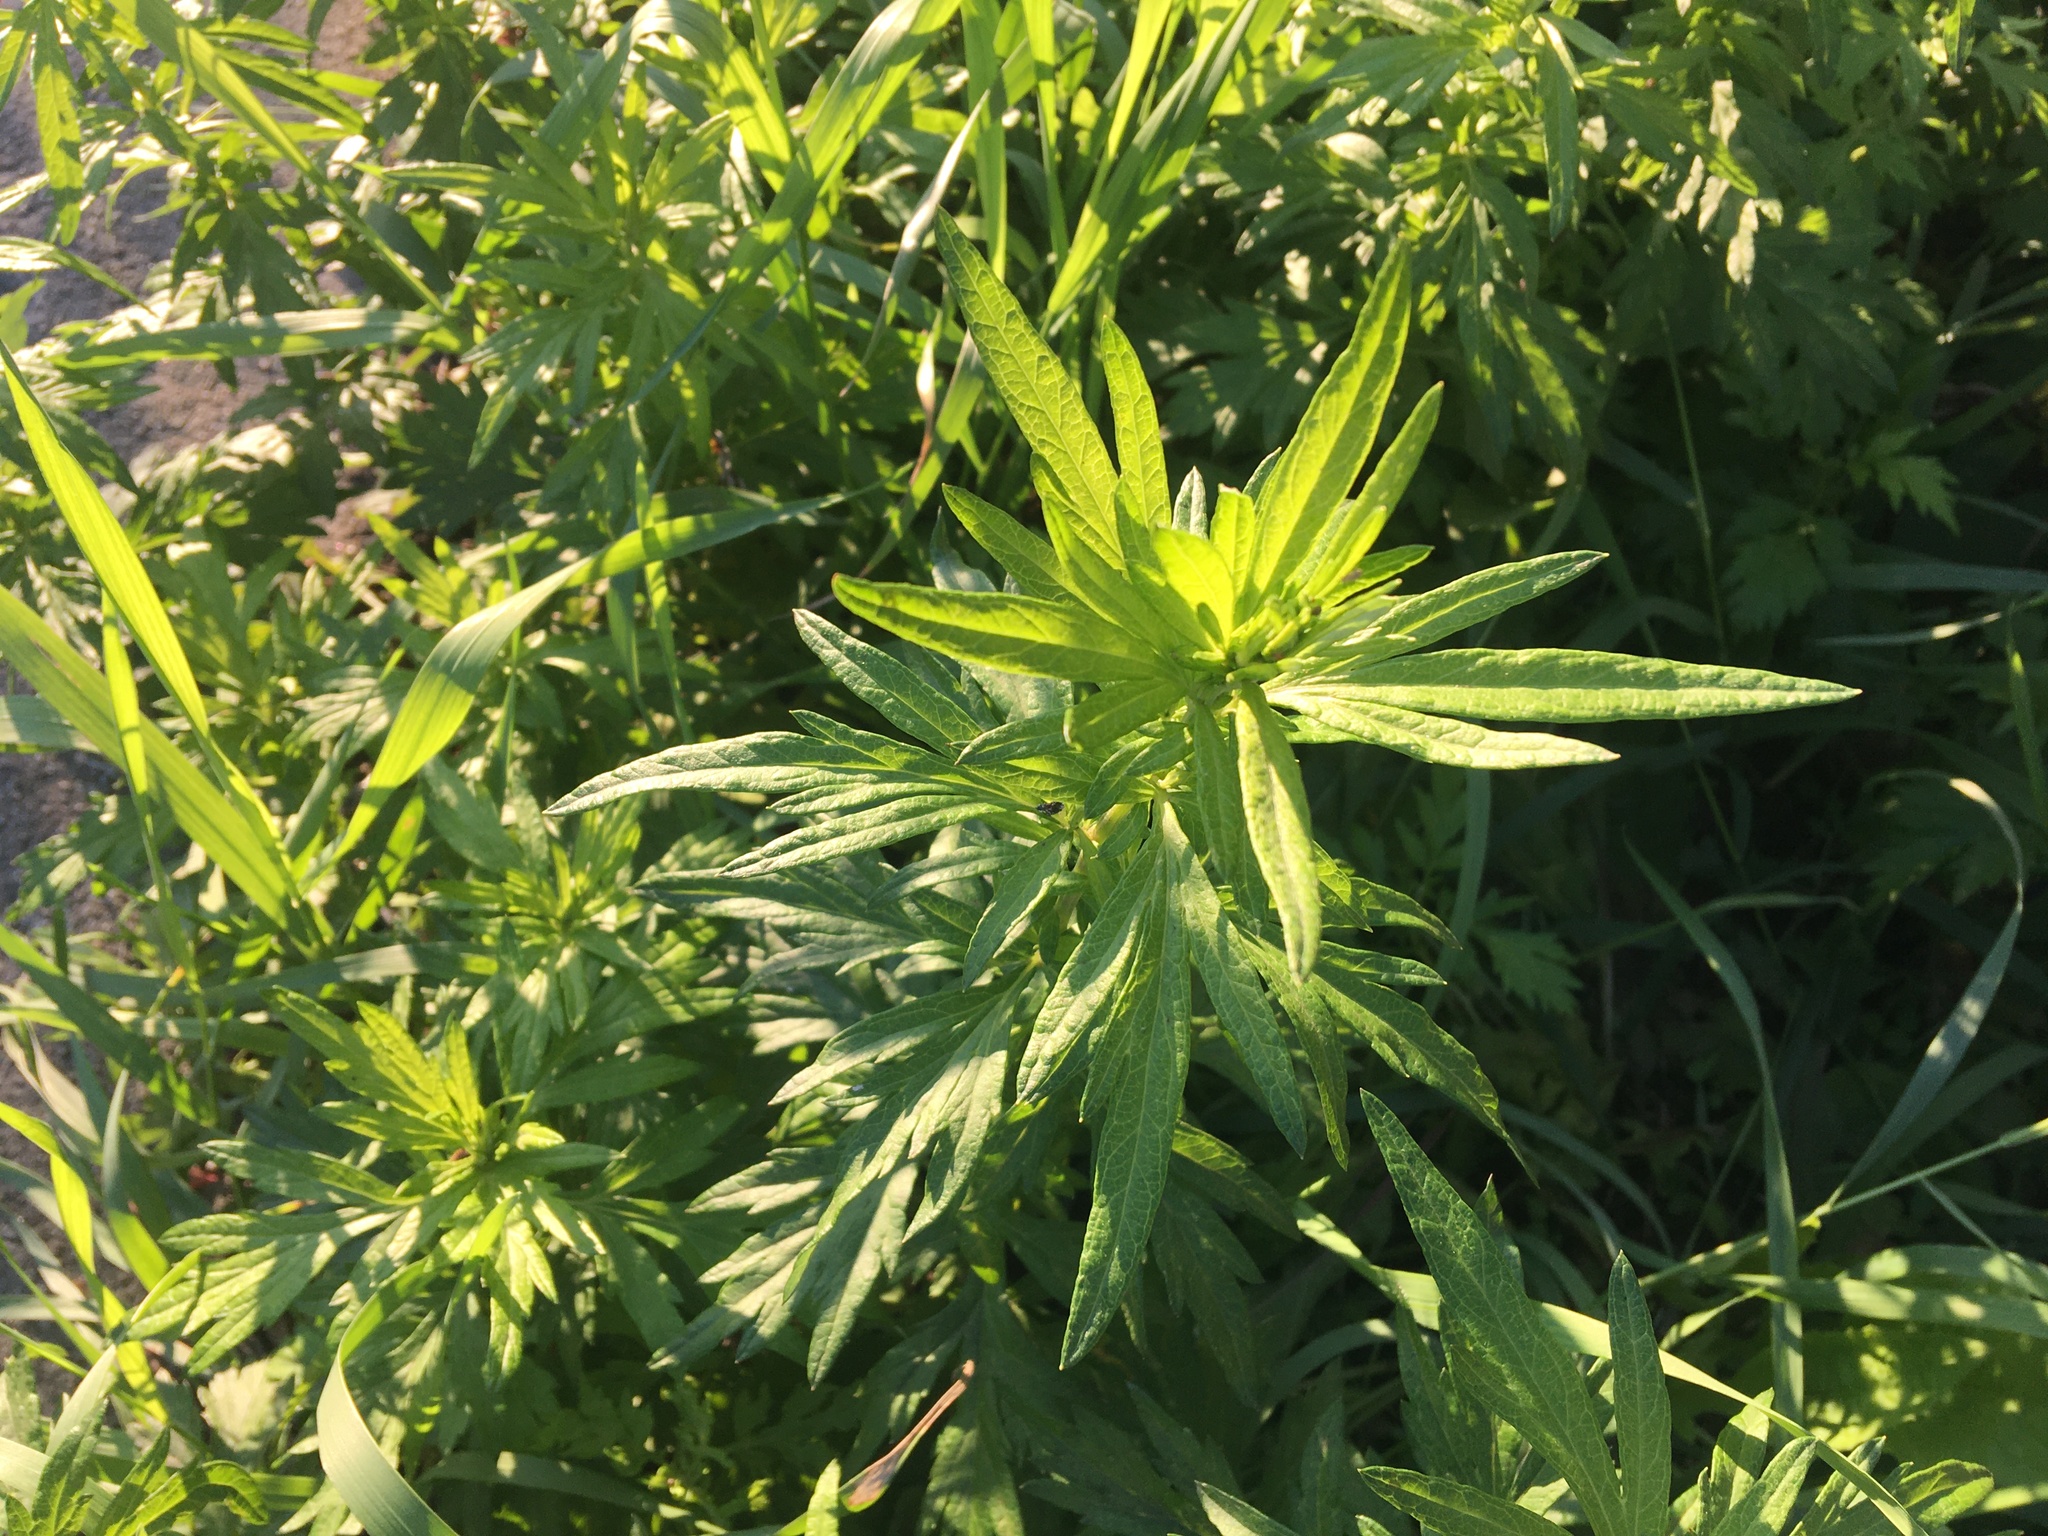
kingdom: Plantae
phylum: Tracheophyta
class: Magnoliopsida
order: Asterales
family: Asteraceae
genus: Artemisia
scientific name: Artemisia vulgaris
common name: Mugwort
